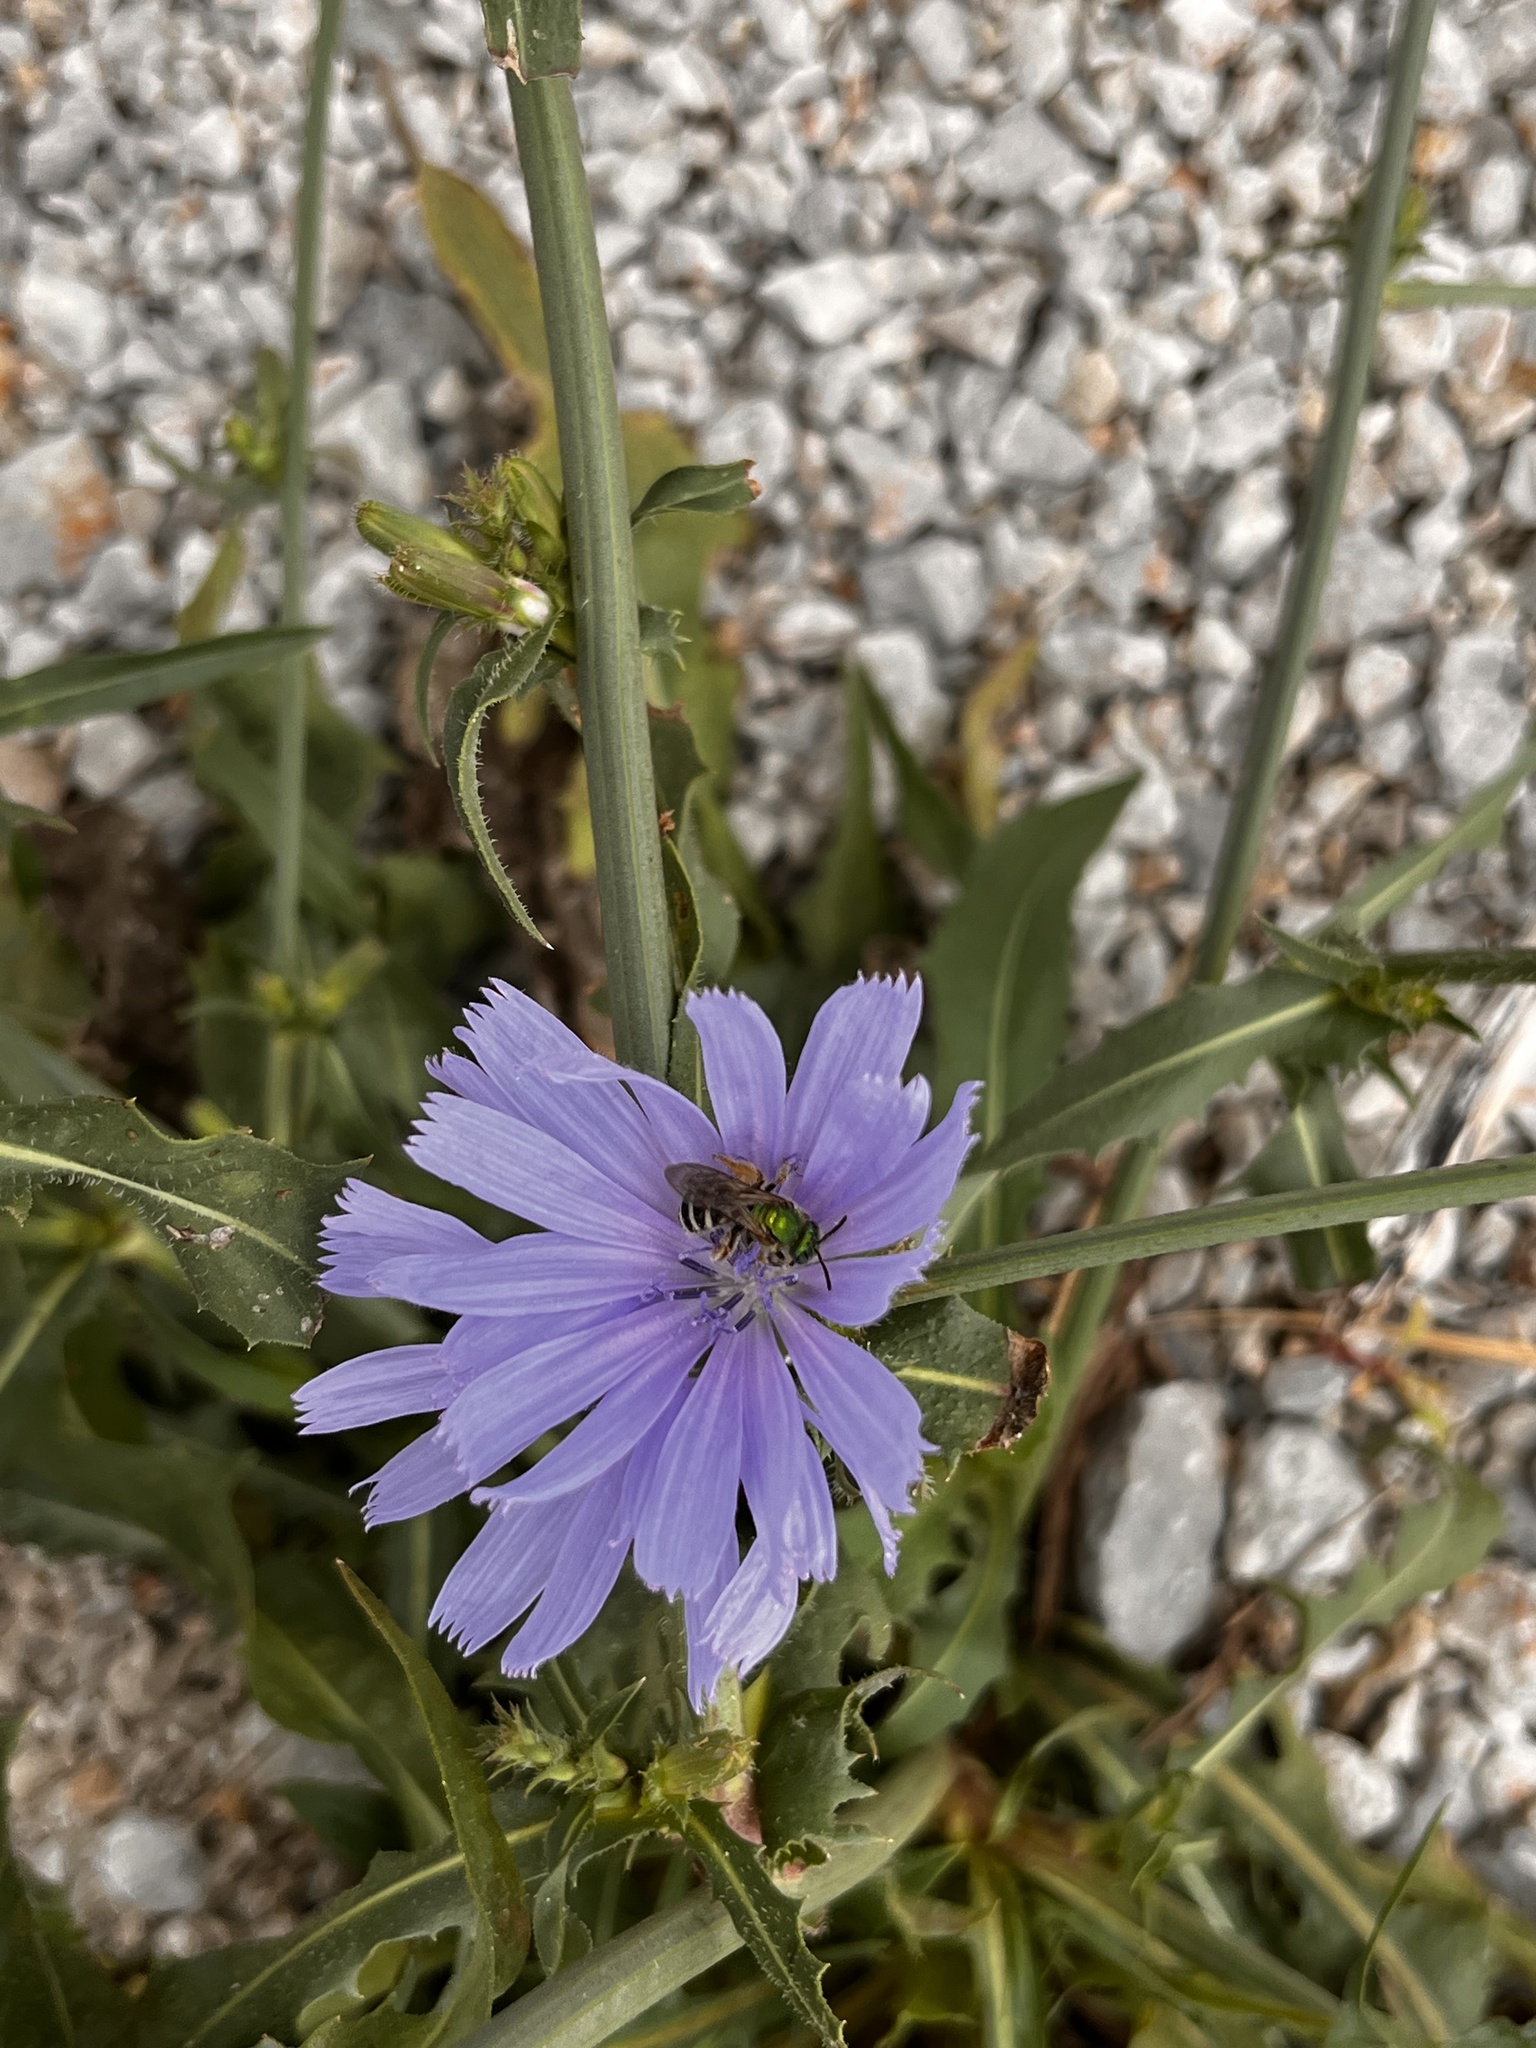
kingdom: Animalia
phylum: Arthropoda
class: Insecta
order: Hymenoptera
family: Halictidae
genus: Agapostemon
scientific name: Agapostemon virescens
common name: Bicolored striped sweat bee
